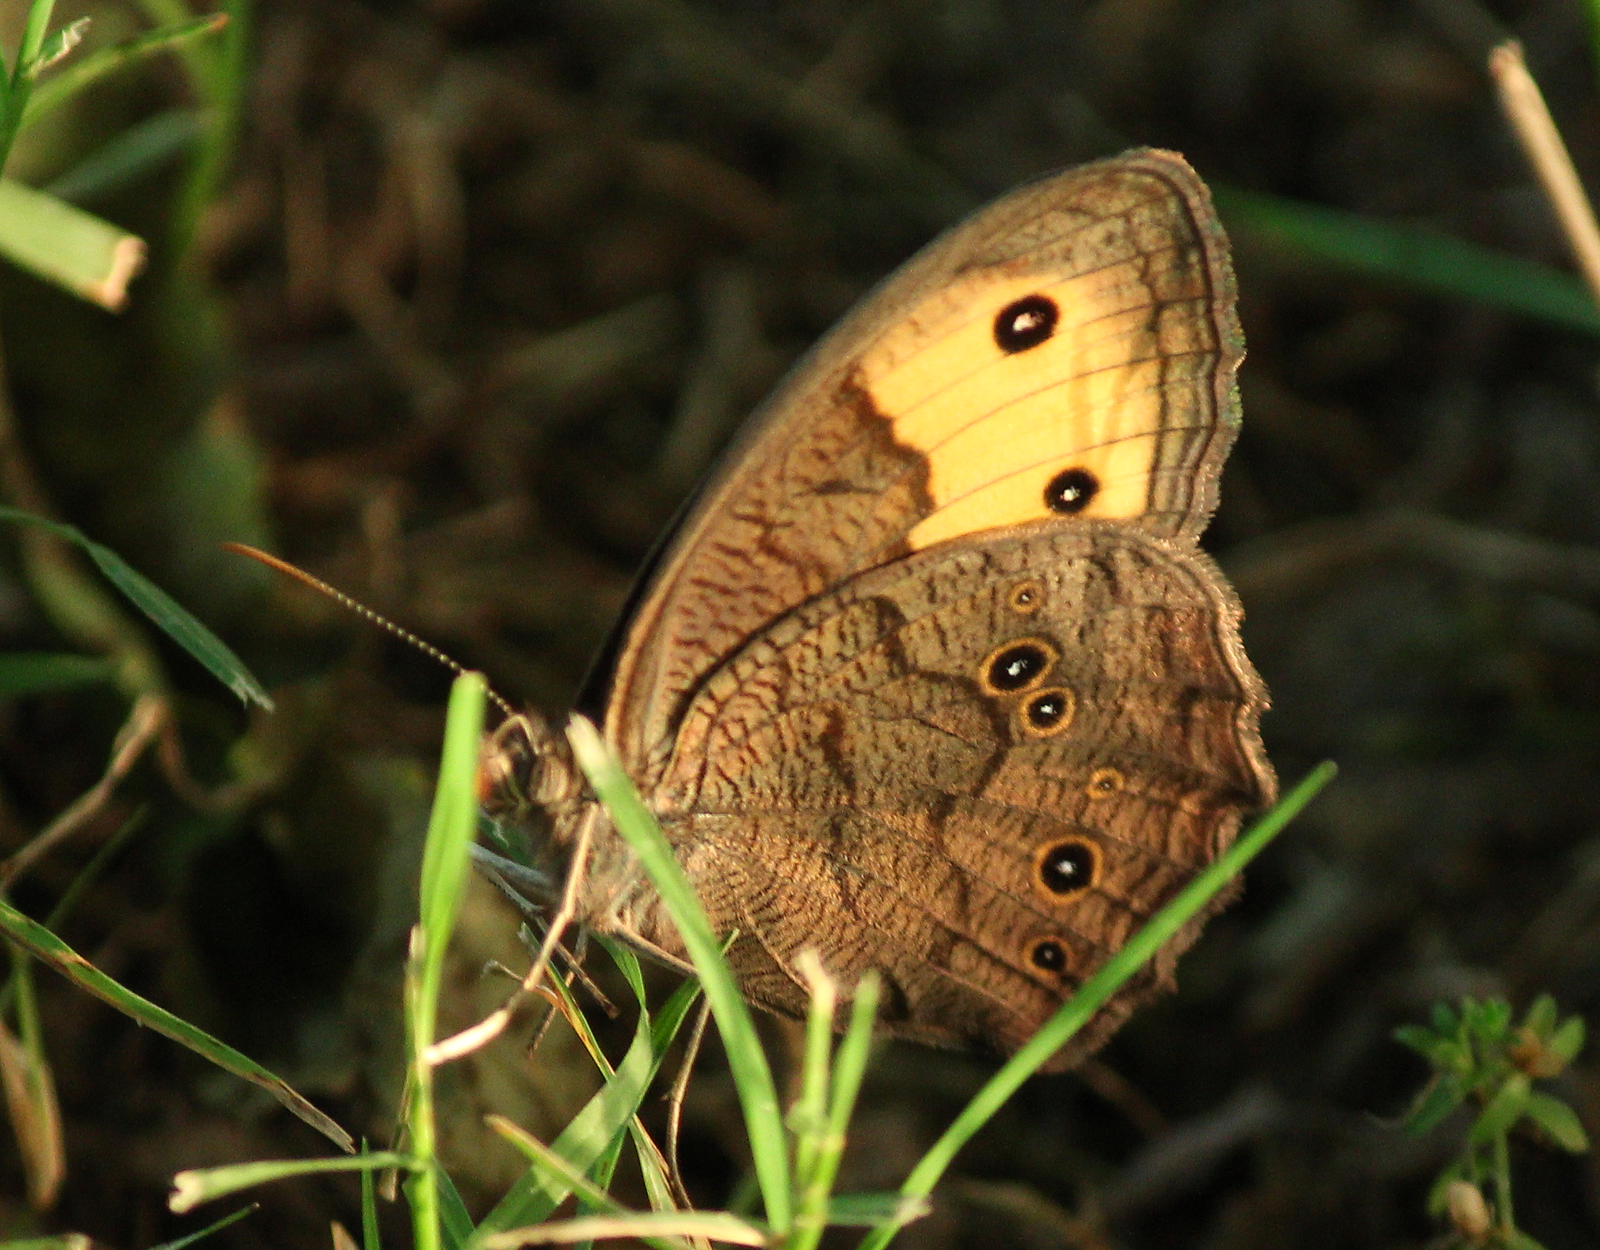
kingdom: Animalia
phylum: Arthropoda
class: Insecta
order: Lepidoptera
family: Nymphalidae
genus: Cercyonis
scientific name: Cercyonis pegala
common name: Common wood-nymph
